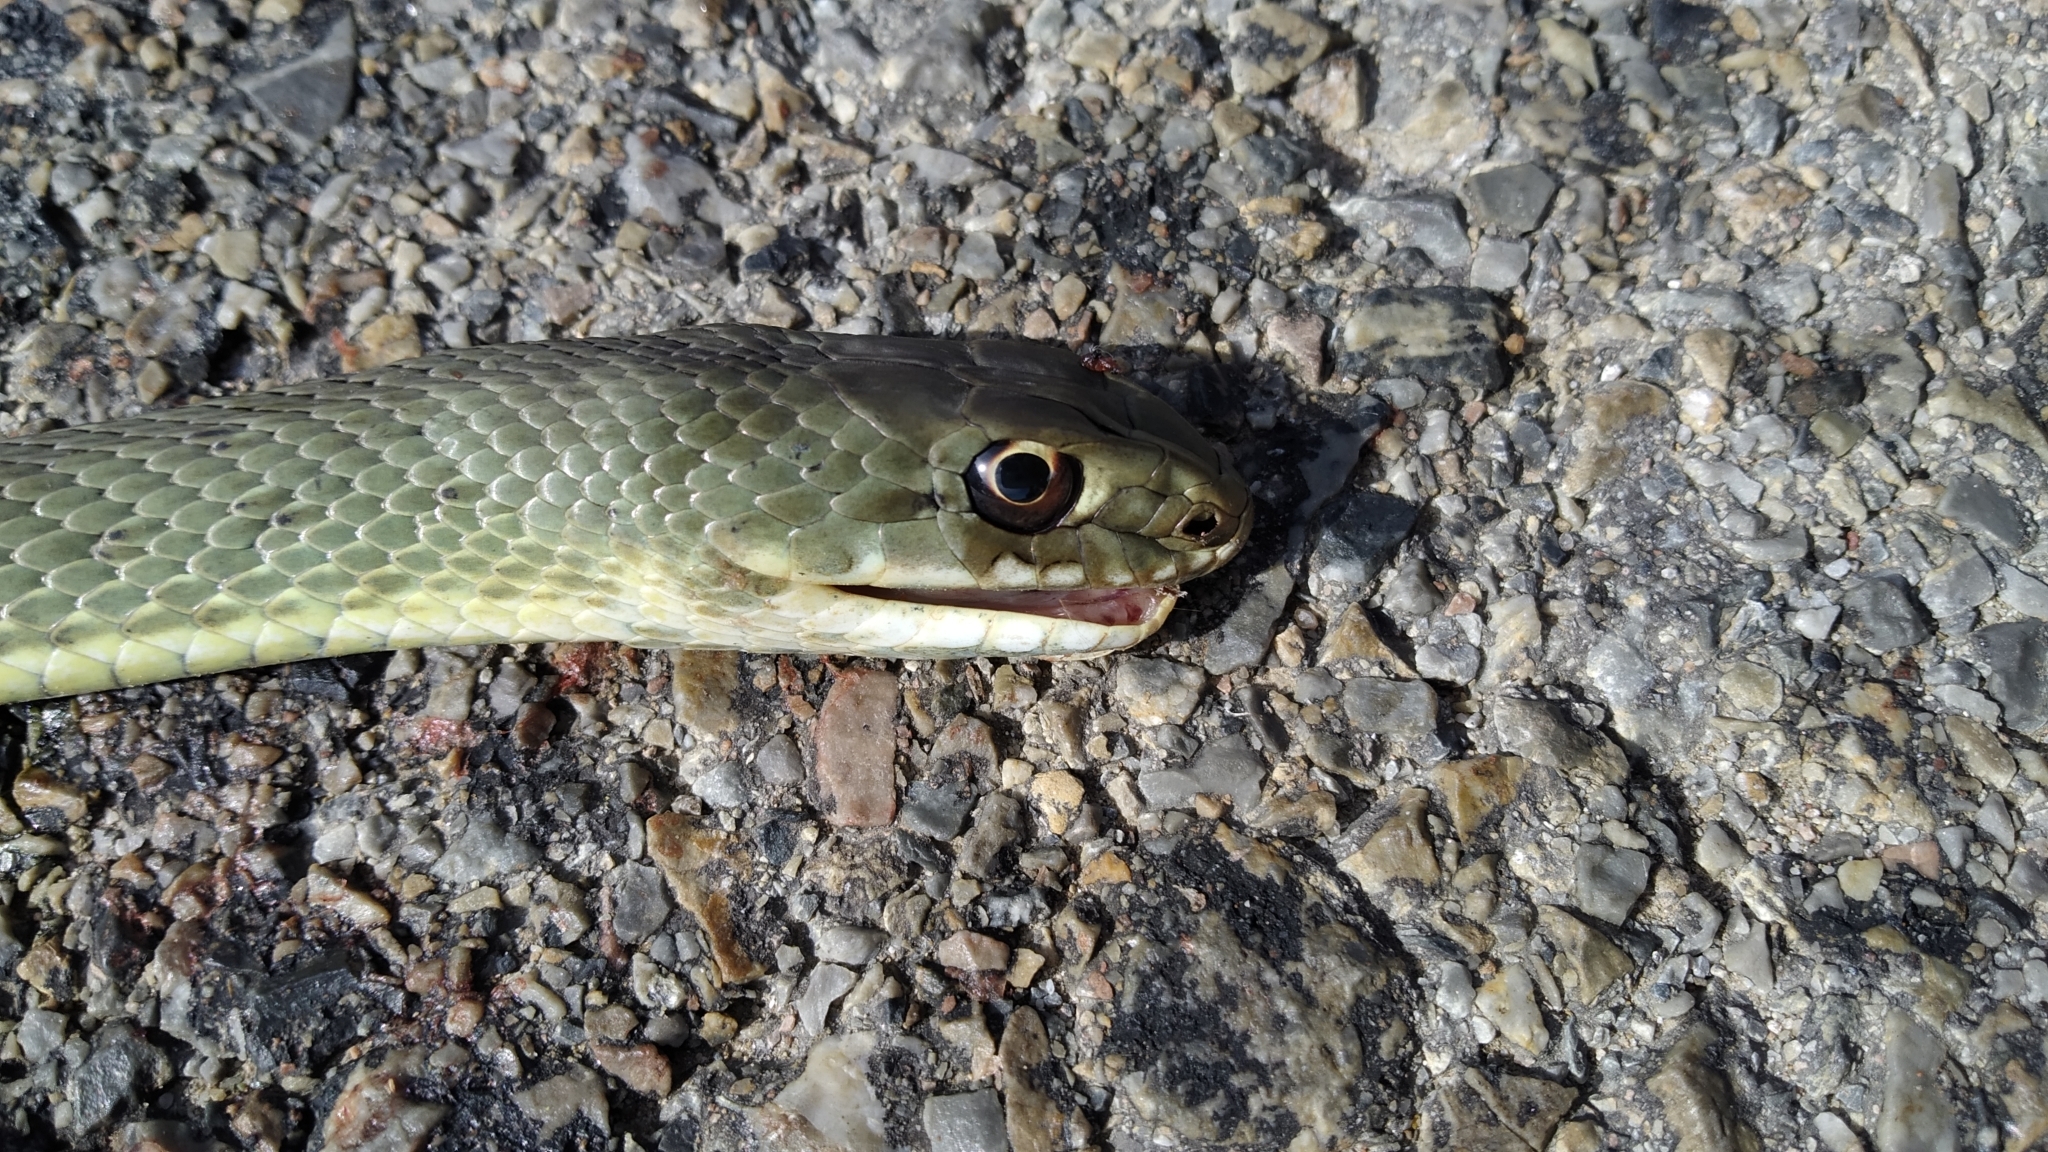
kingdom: Animalia
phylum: Chordata
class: Squamata
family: Psammophiidae
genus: Malpolon
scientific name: Malpolon monspessulanus
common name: Montpellier snake
